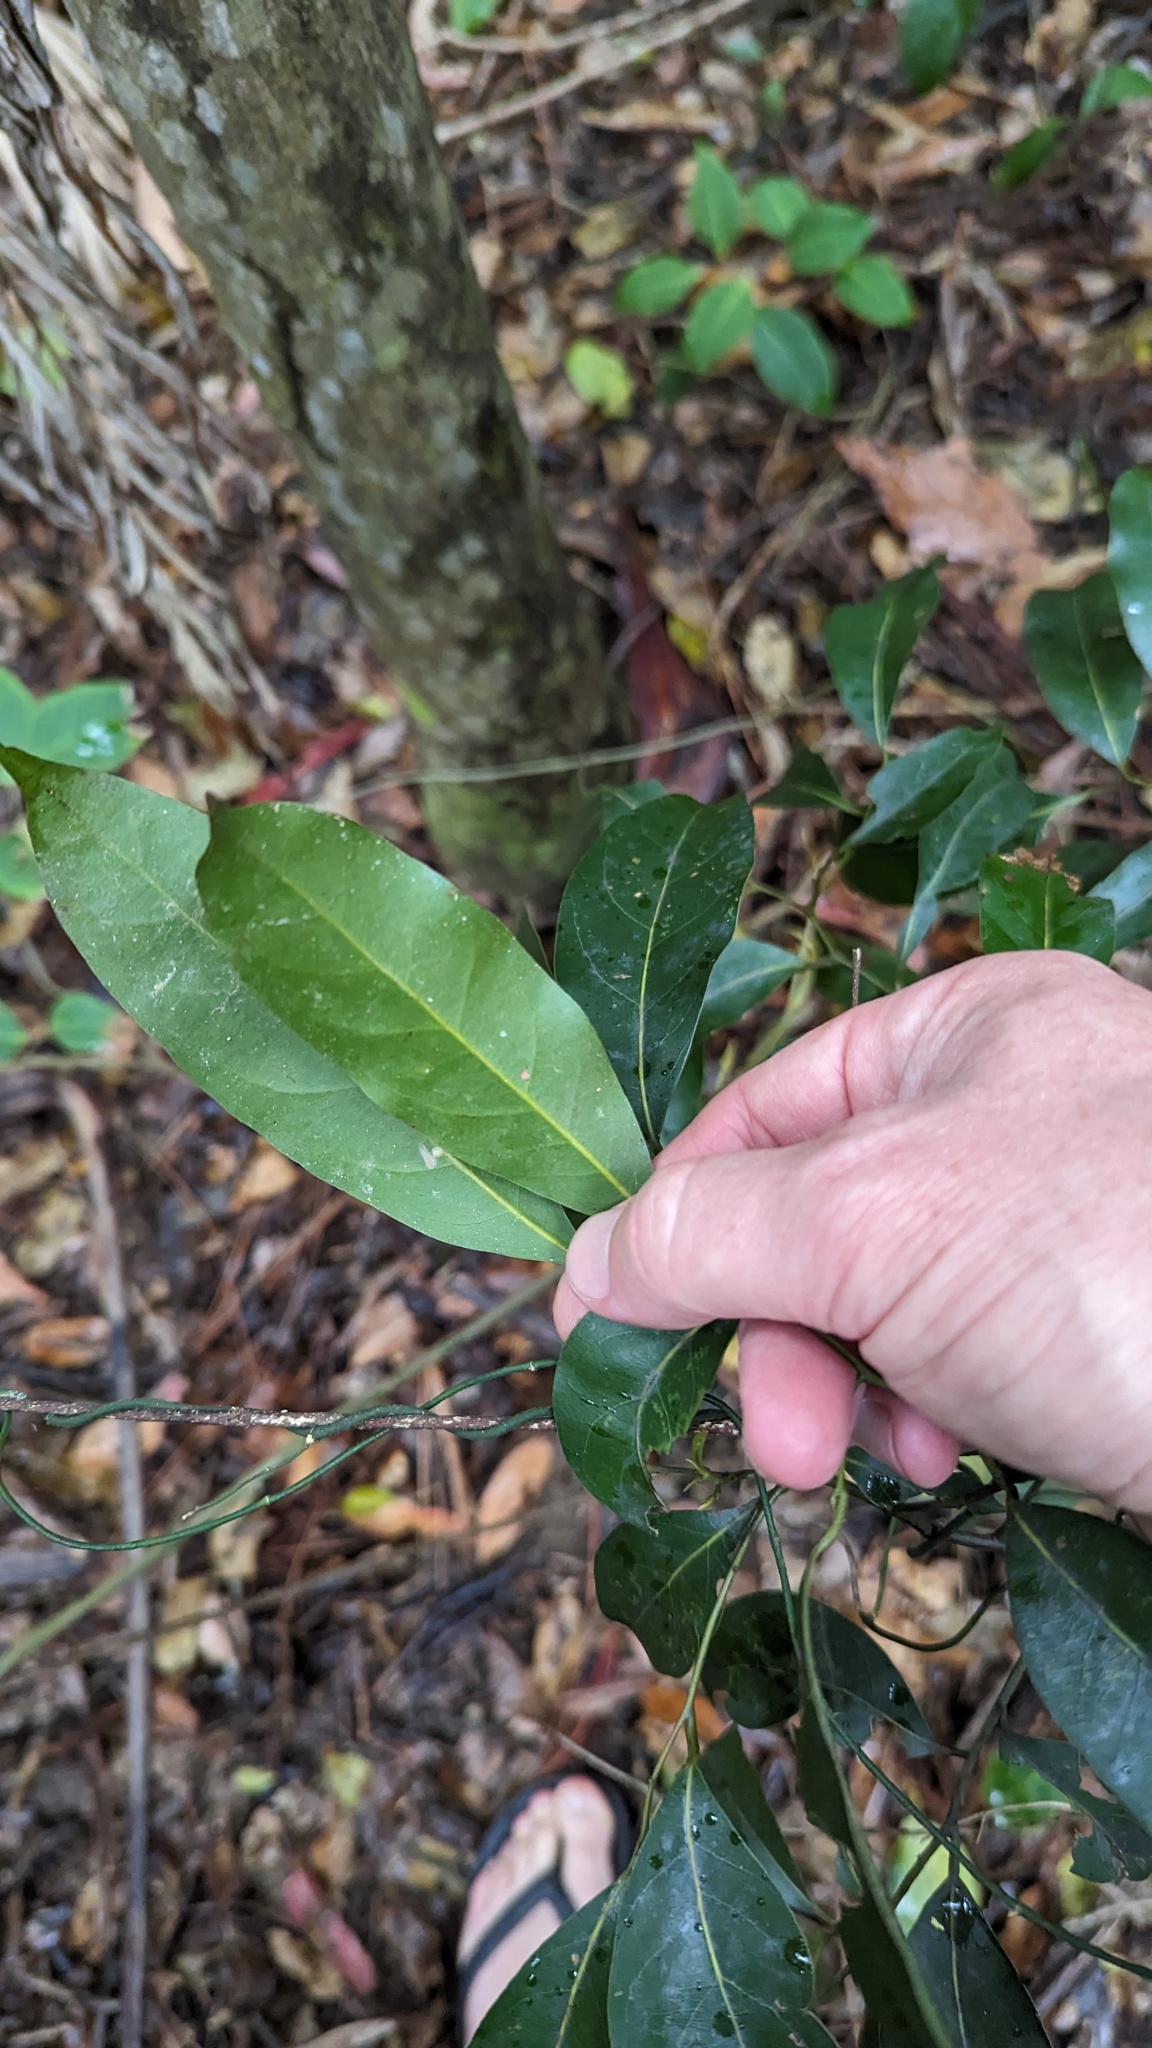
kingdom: Plantae
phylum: Tracheophyta
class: Magnoliopsida
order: Laurales
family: Lauraceae
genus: Cryptocarya
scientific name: Cryptocarya microneura
